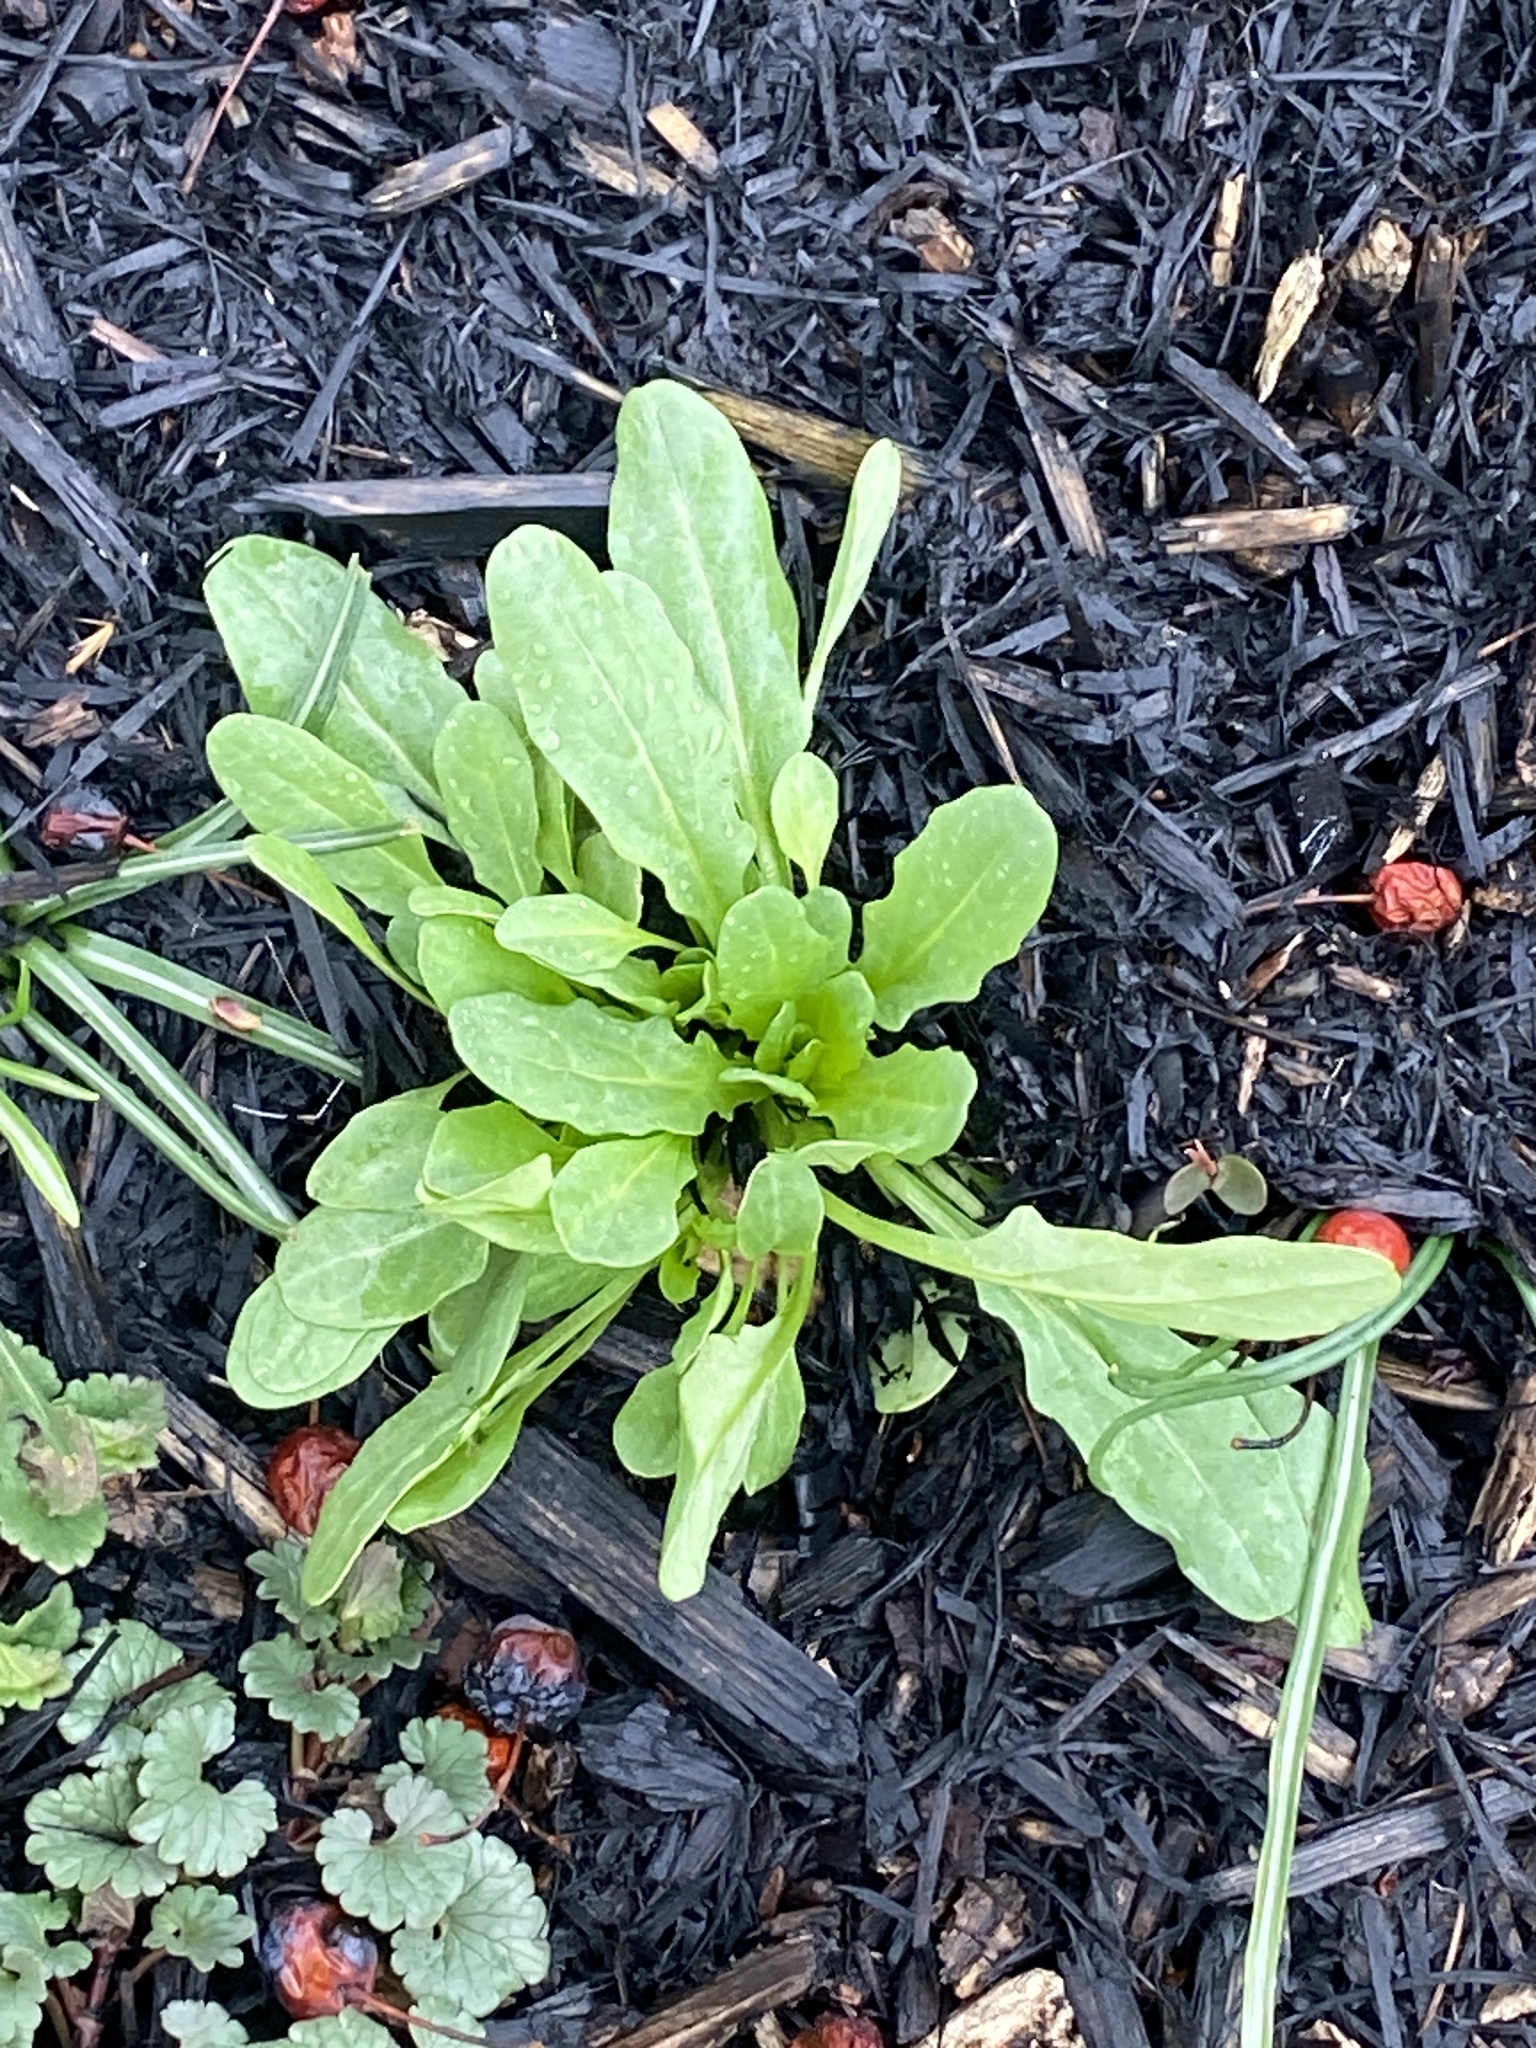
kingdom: Plantae
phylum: Tracheophyta
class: Magnoliopsida
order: Brassicales
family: Brassicaceae
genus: Thlaspi
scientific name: Thlaspi arvense
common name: Field pennycress
